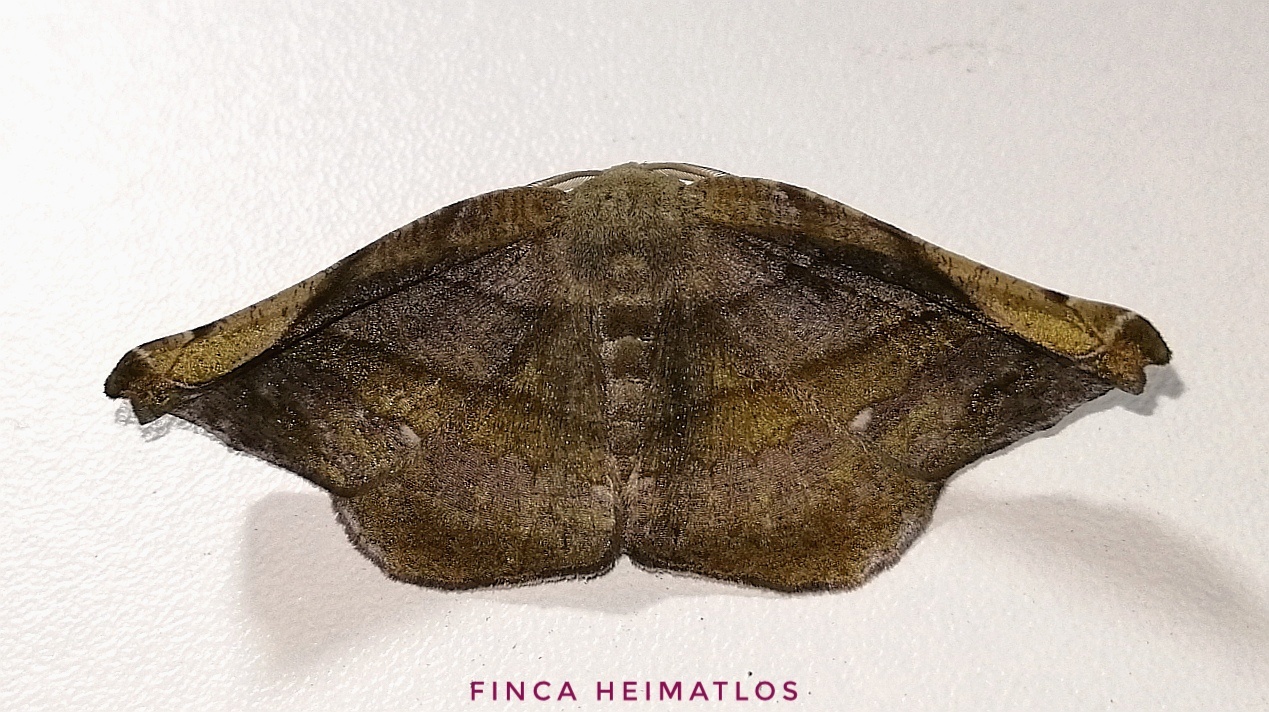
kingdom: Animalia
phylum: Arthropoda
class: Insecta
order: Lepidoptera
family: Geometridae
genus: Hygrochroma
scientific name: Hygrochroma olivinaria
